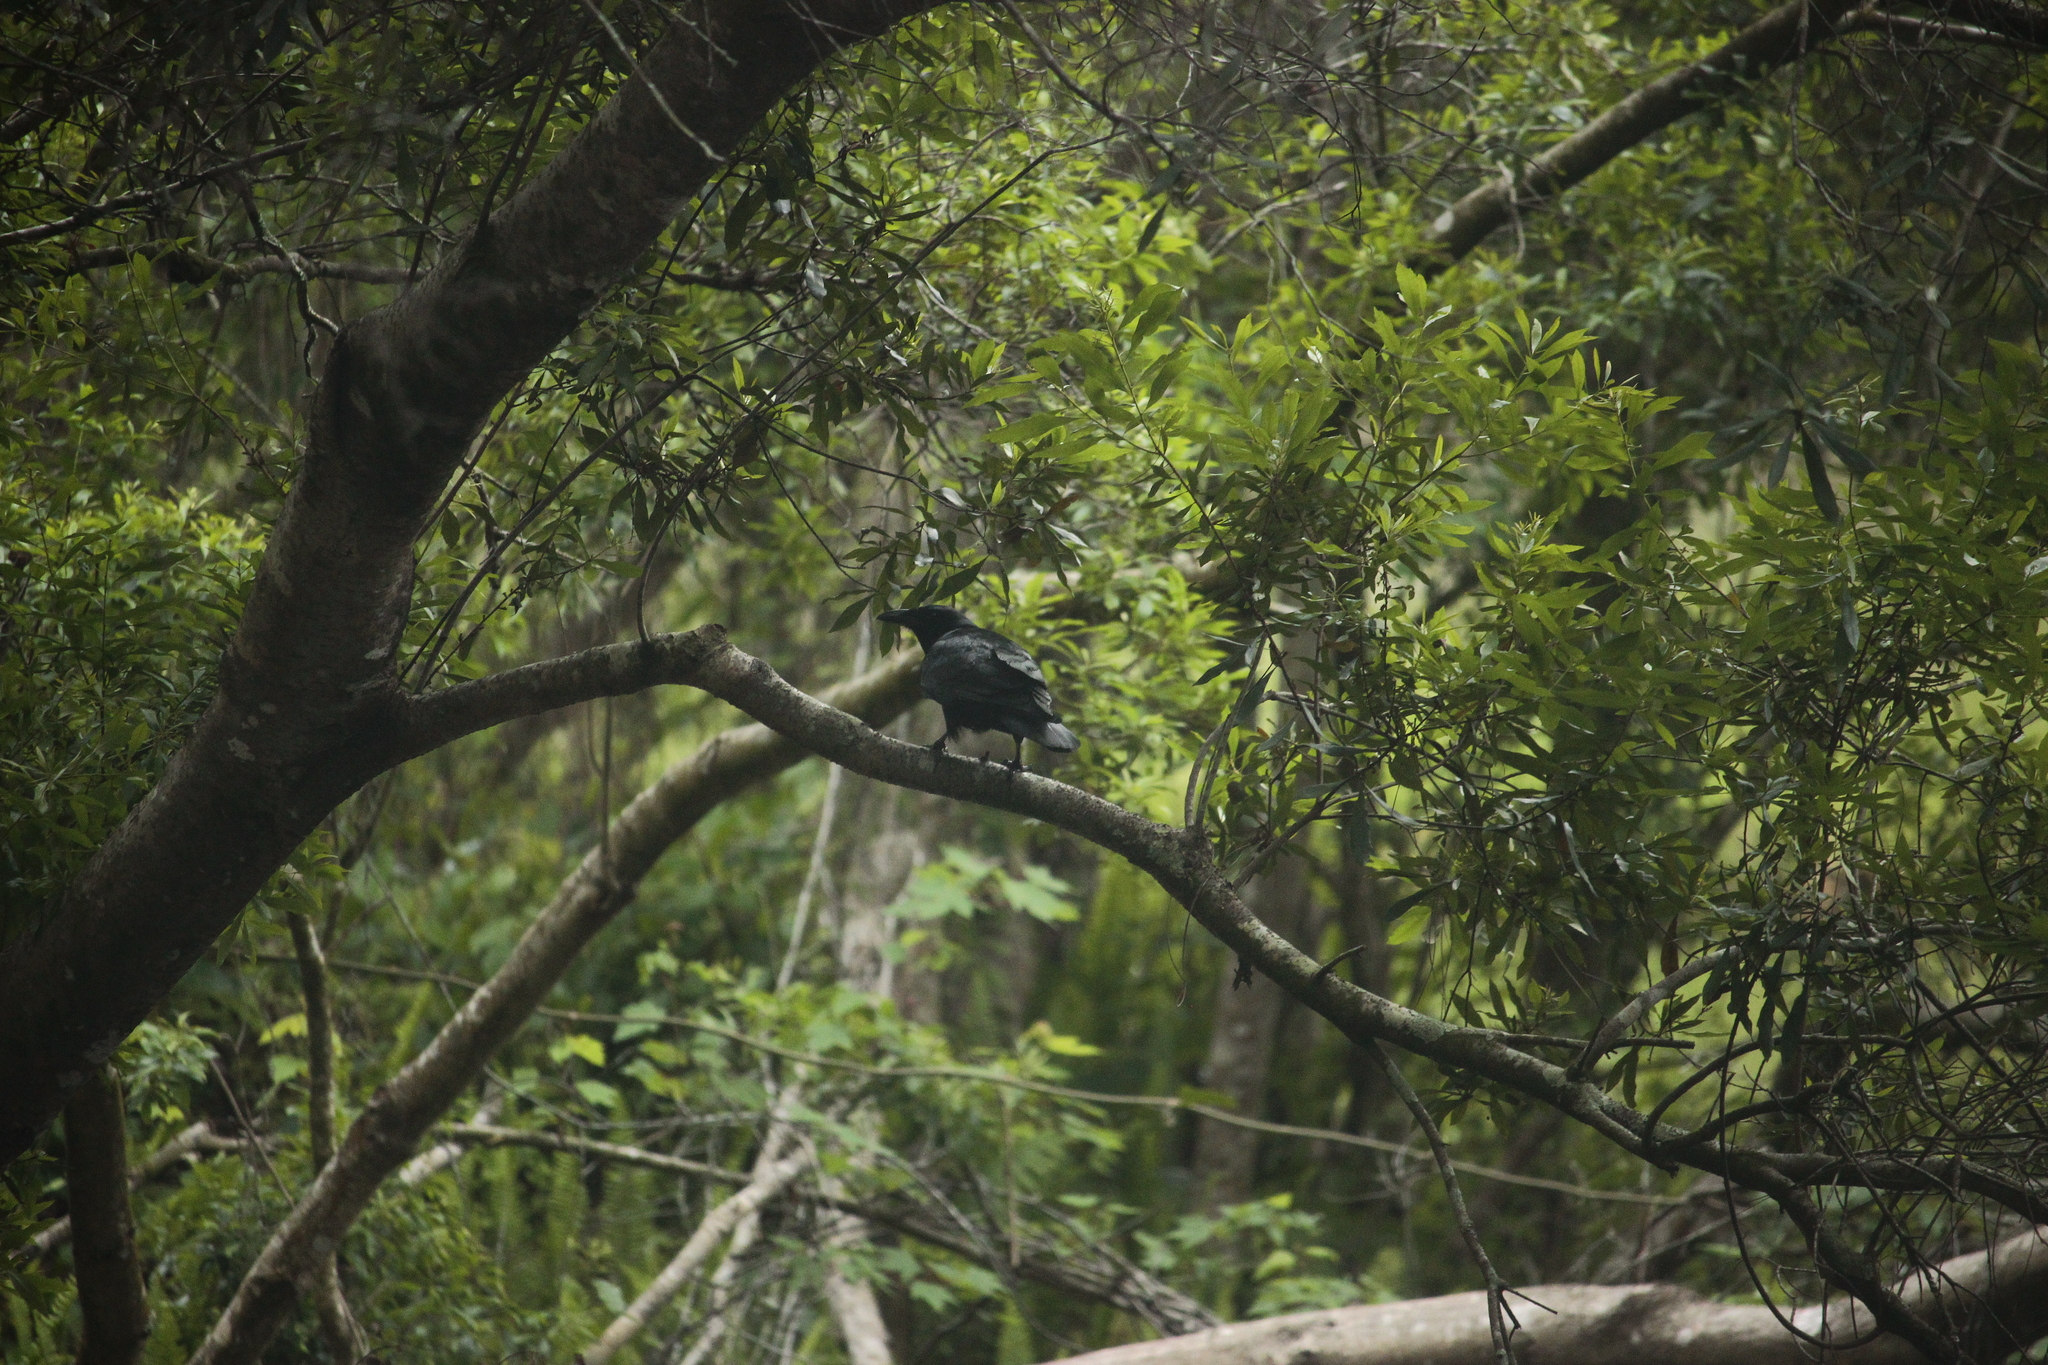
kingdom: Animalia
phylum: Chordata
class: Aves
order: Passeriformes
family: Corvidae
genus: Corvus
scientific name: Corvus ossifragus
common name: Fish crow
